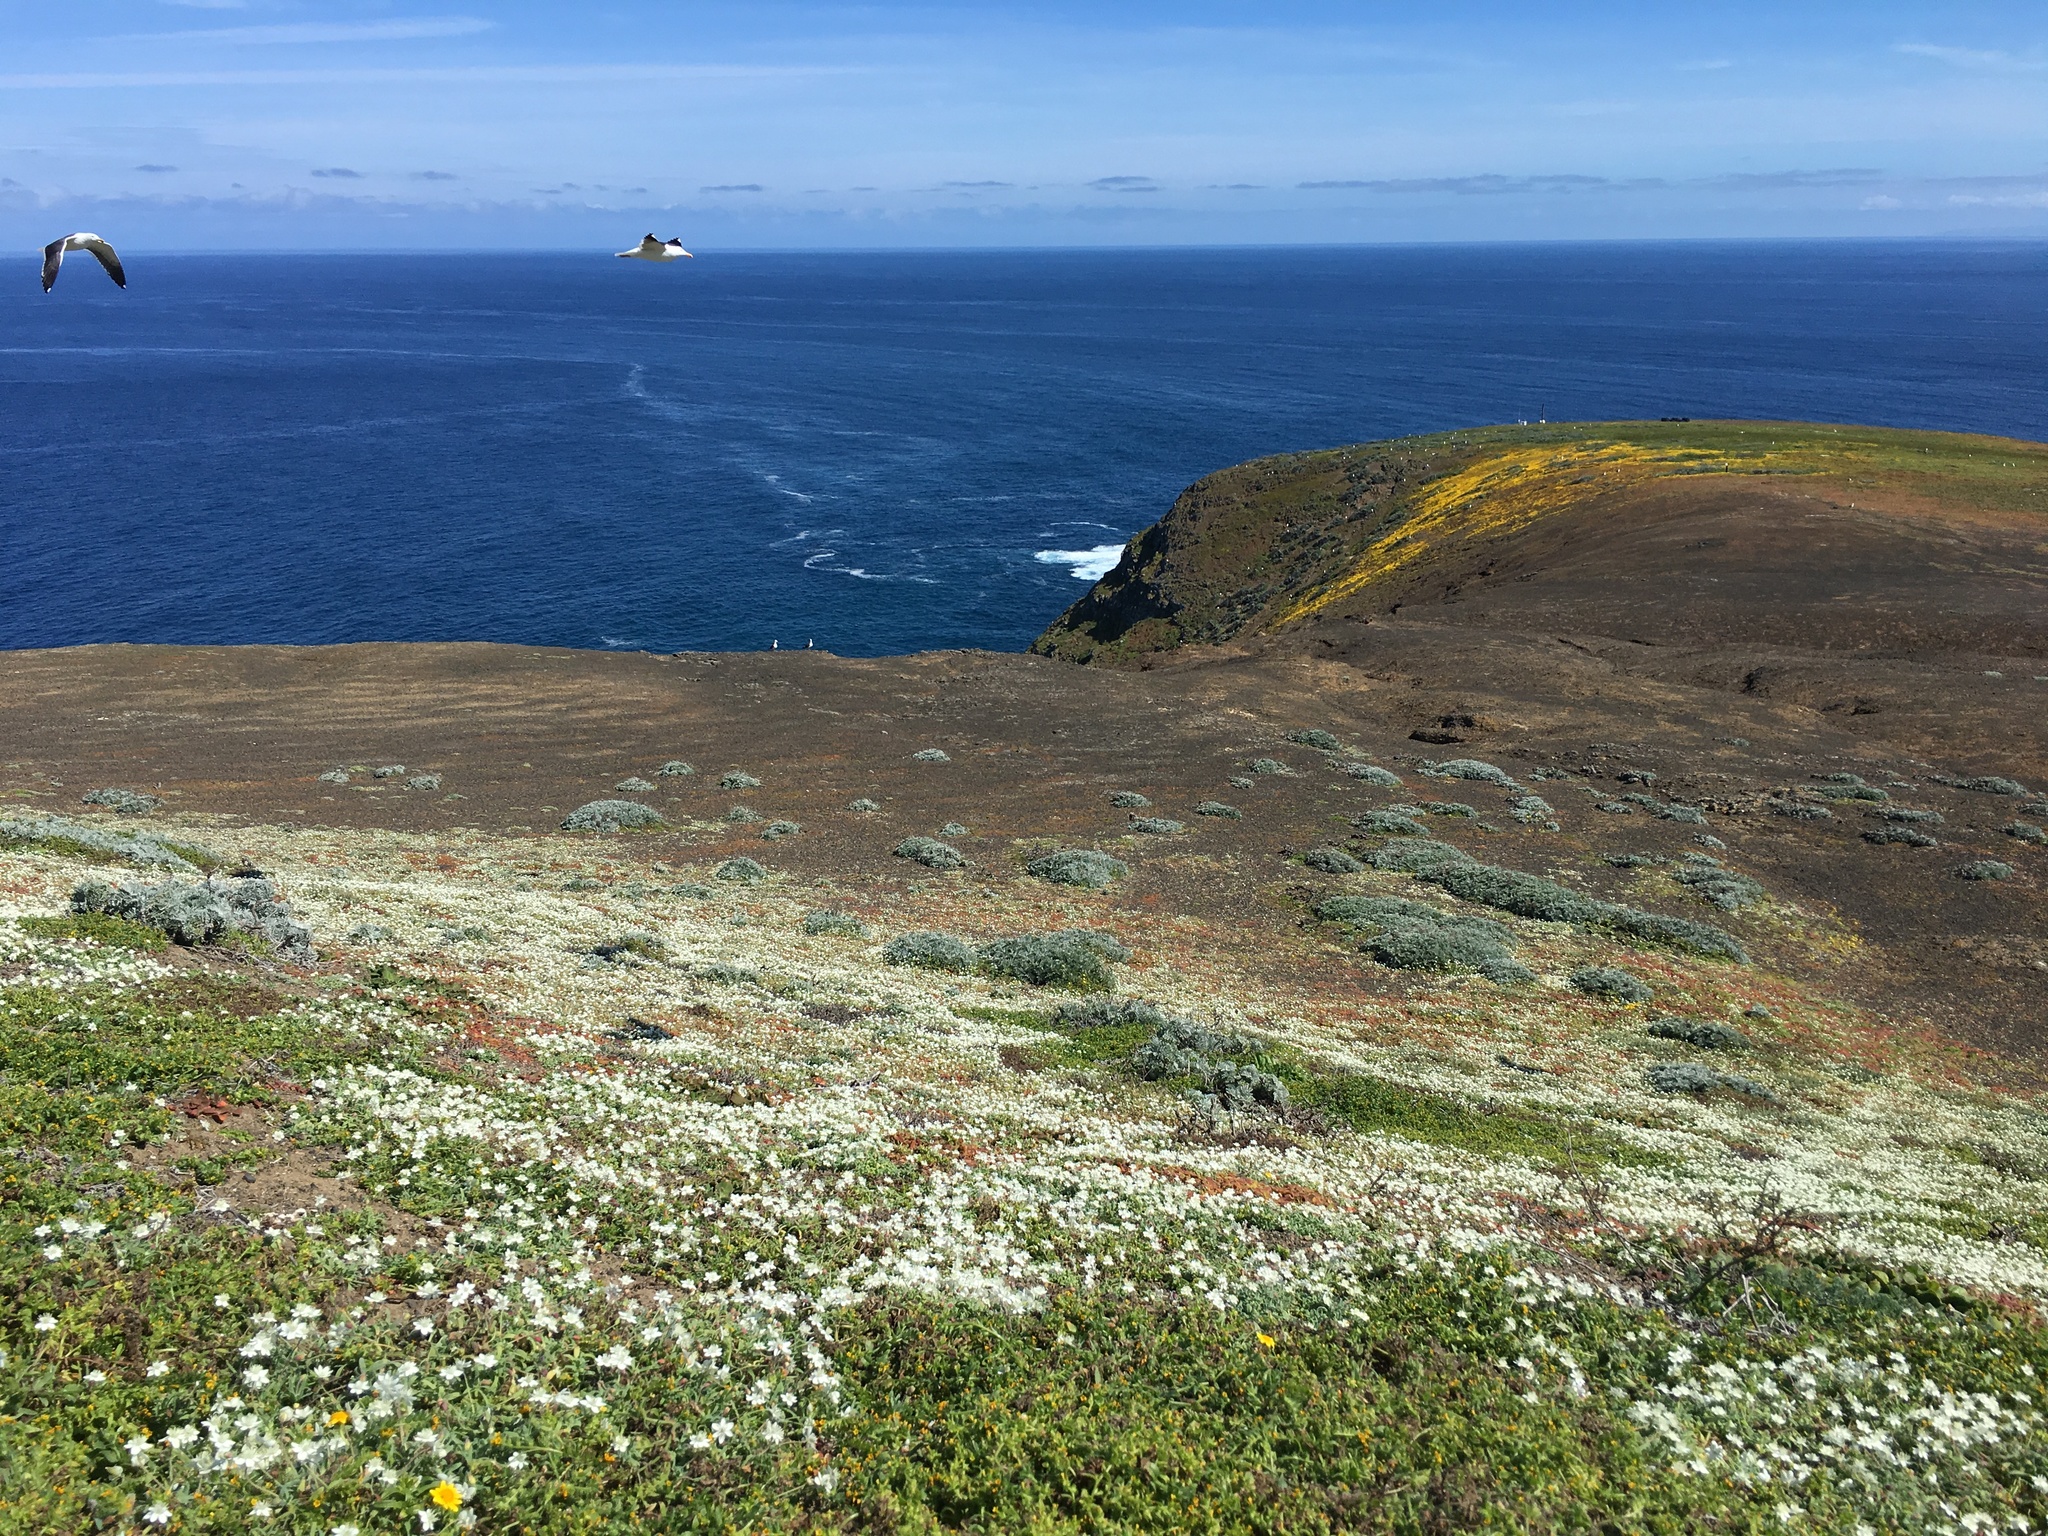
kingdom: Plantae
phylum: Tracheophyta
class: Magnoliopsida
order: Ranunculales
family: Papaveraceae
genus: Platystemon
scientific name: Platystemon californicus
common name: Cream-cups
